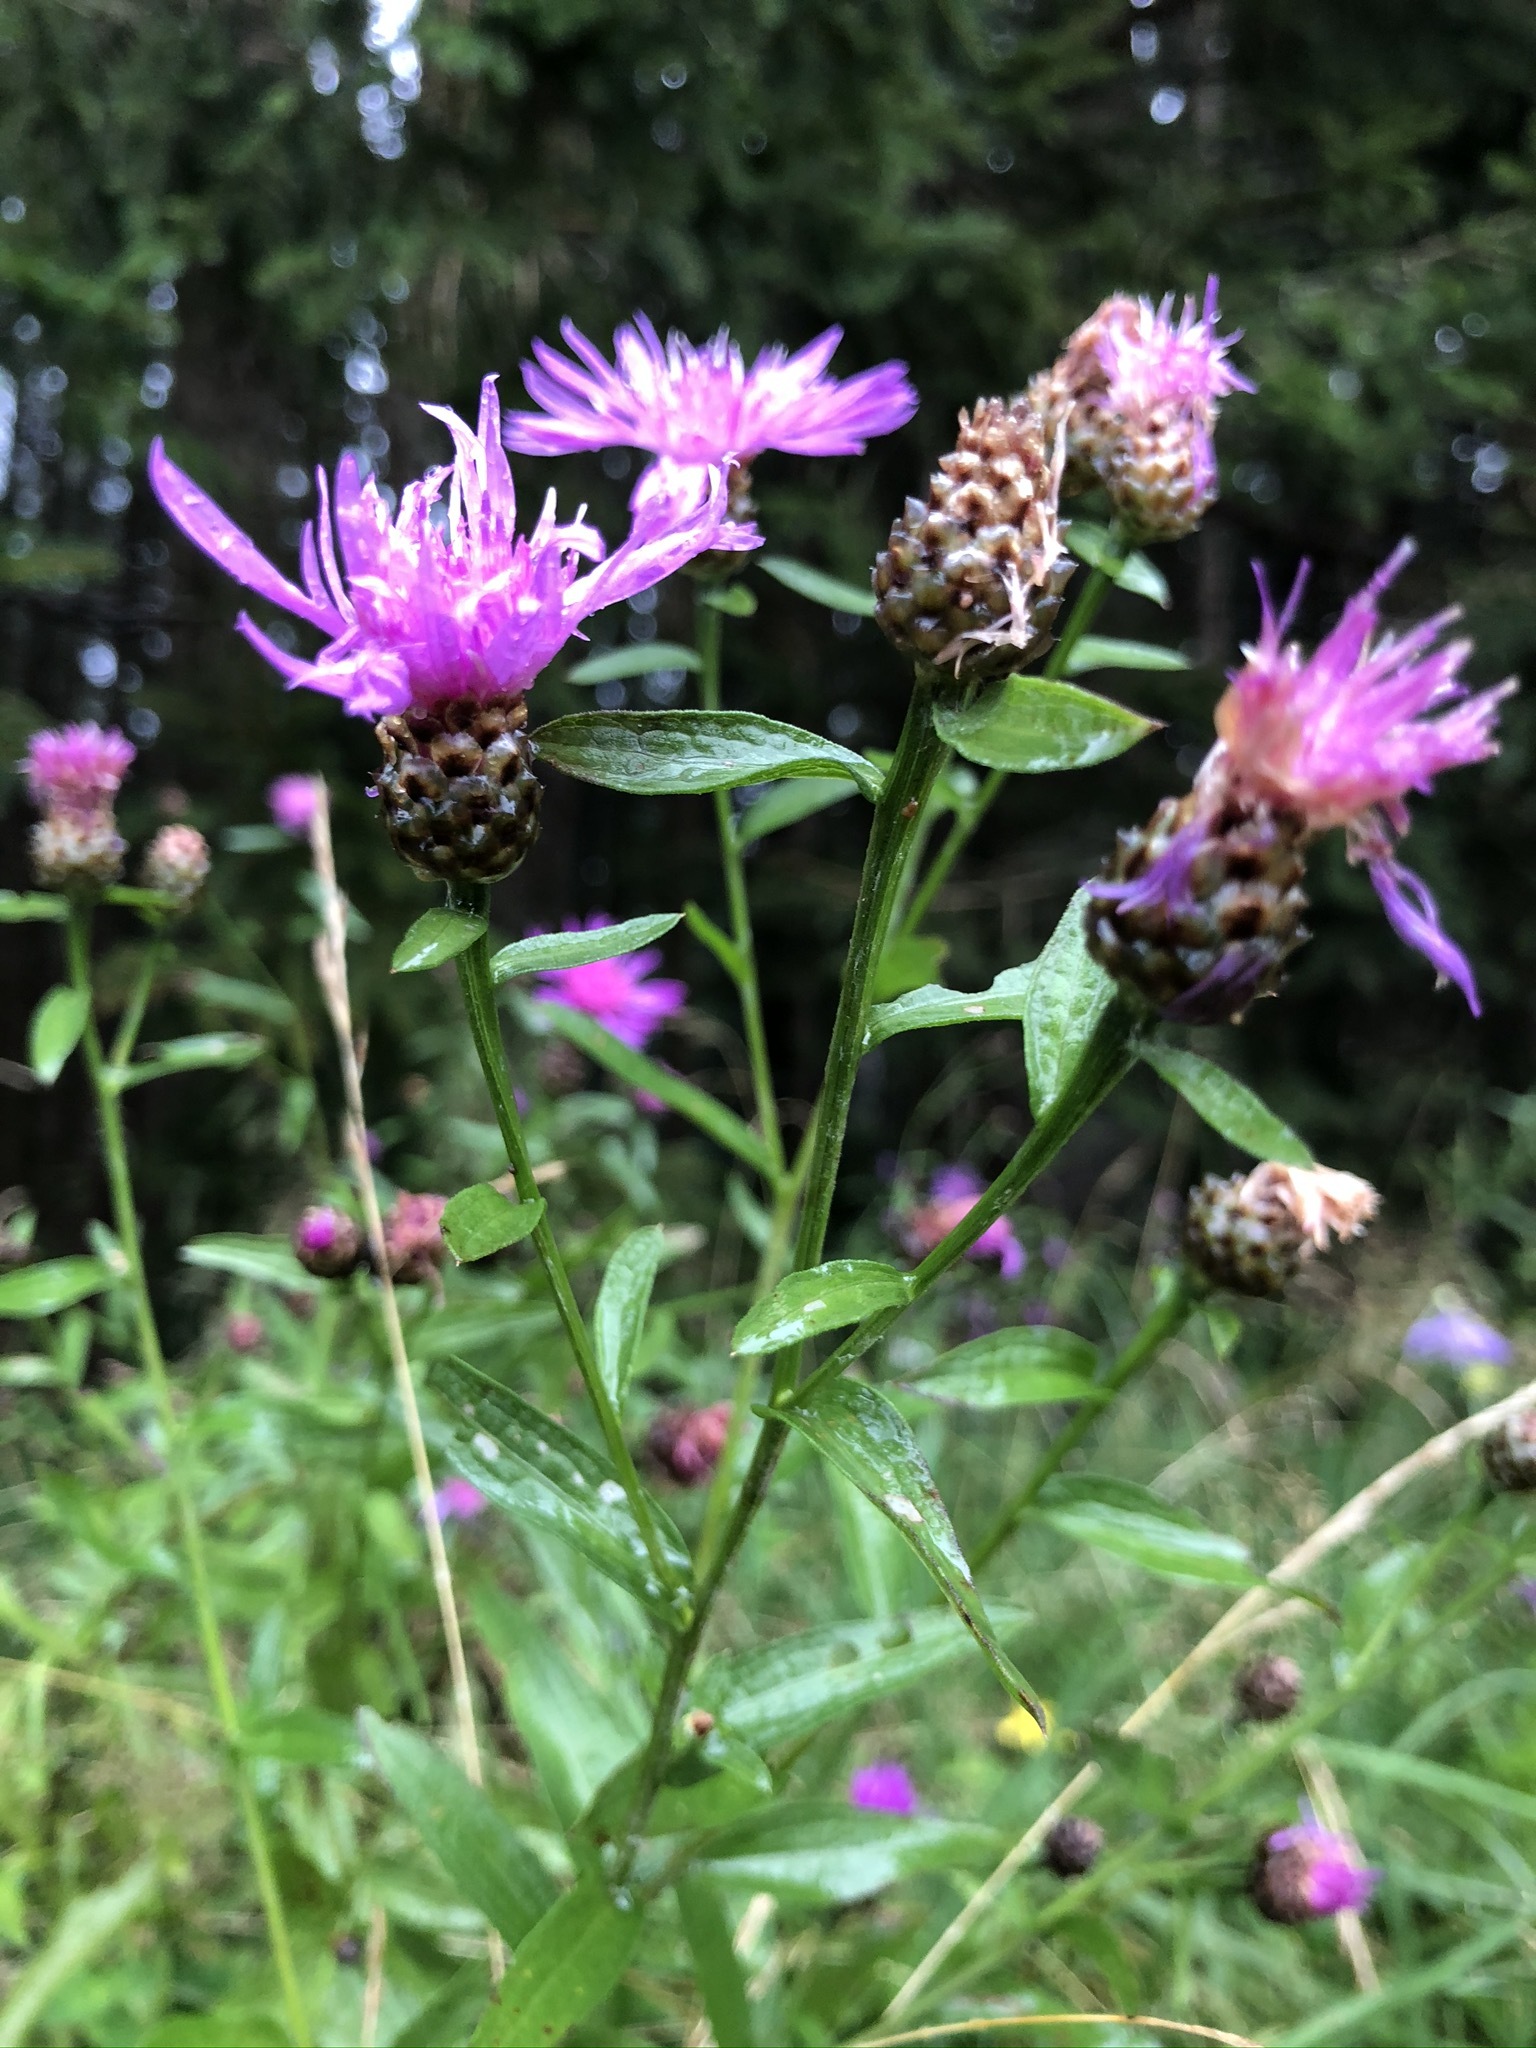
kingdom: Plantae
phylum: Tracheophyta
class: Magnoliopsida
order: Asterales
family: Asteraceae
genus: Centaurea
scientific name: Centaurea jacea
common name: Brown knapweed
